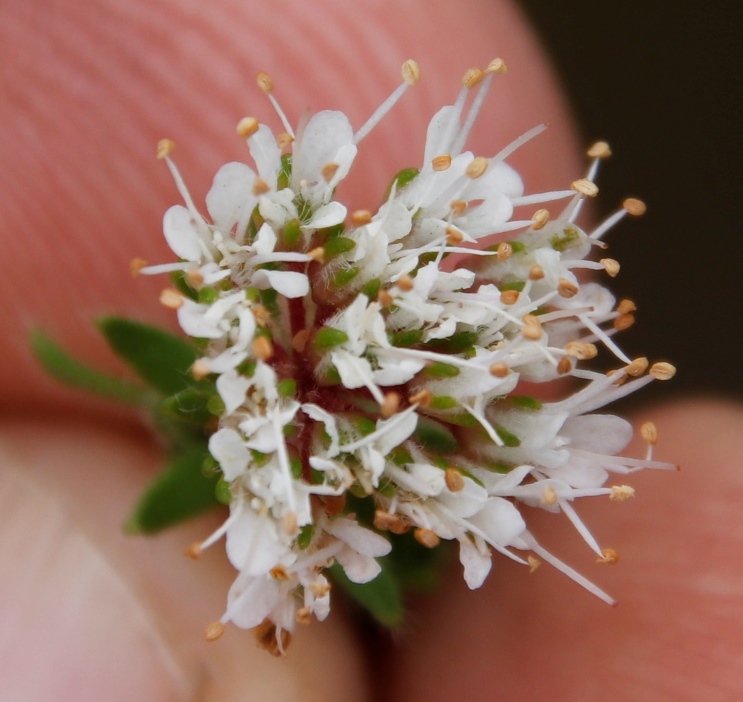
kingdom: Plantae
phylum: Tracheophyta
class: Magnoliopsida
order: Sapindales
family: Rutaceae
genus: Agathosma
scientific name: Agathosma serpyllacea
